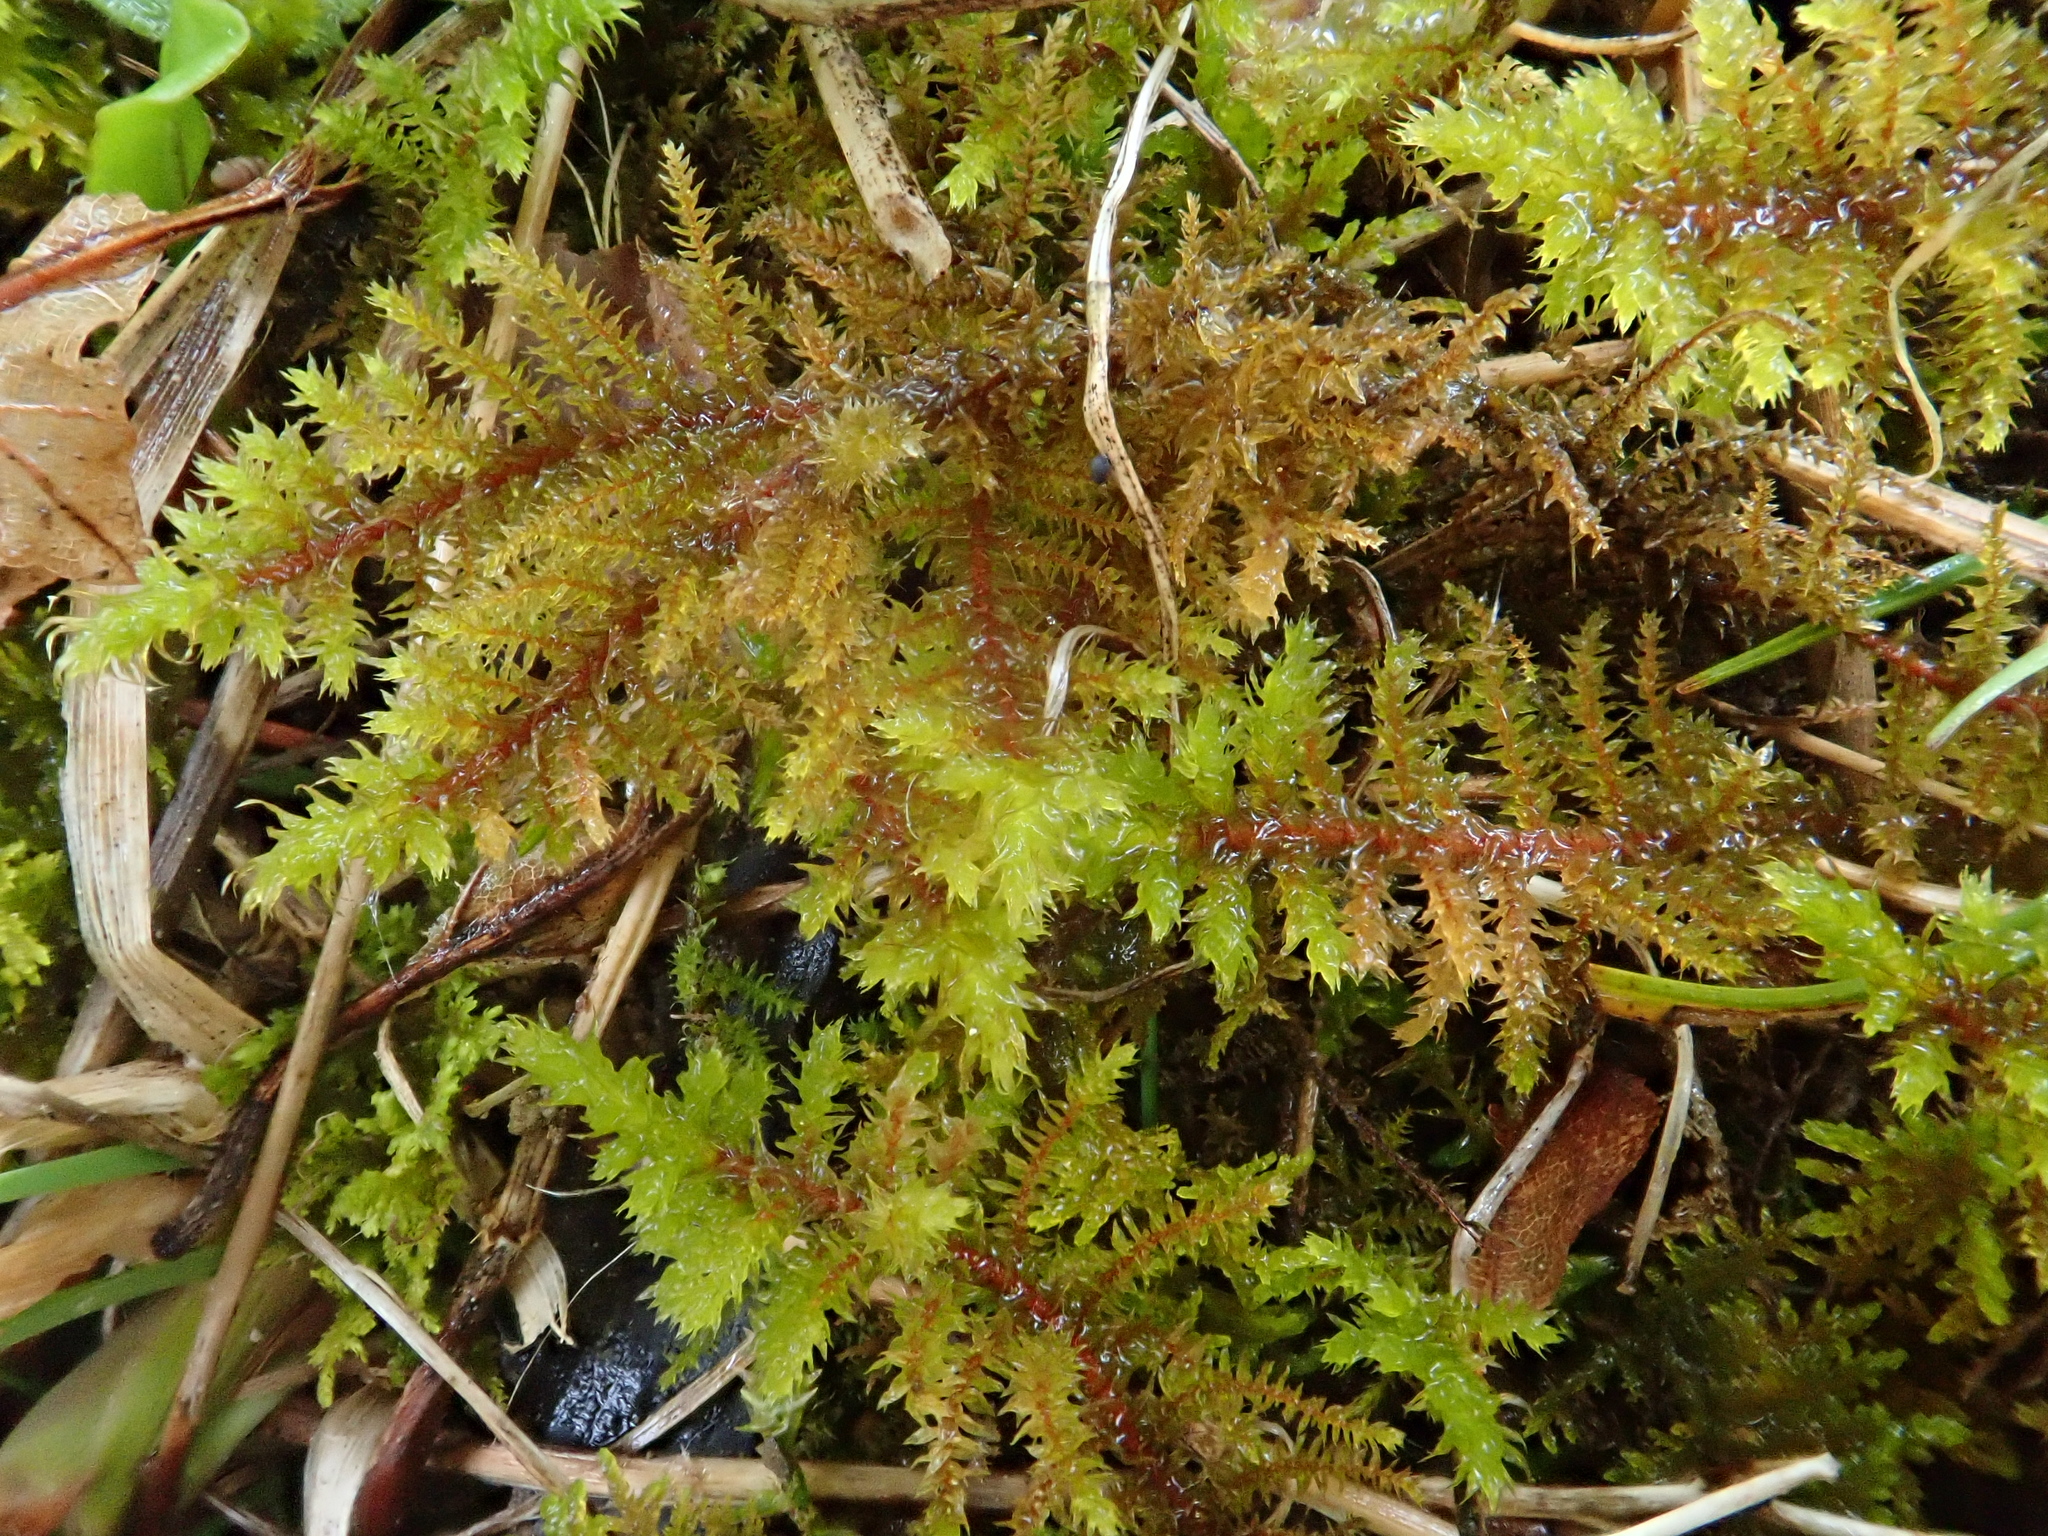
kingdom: Plantae
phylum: Bryophyta
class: Bryopsida
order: Hypnales
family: Thuidiaceae
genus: Abietinella
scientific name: Abietinella abietina
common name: Wiry fern moss
